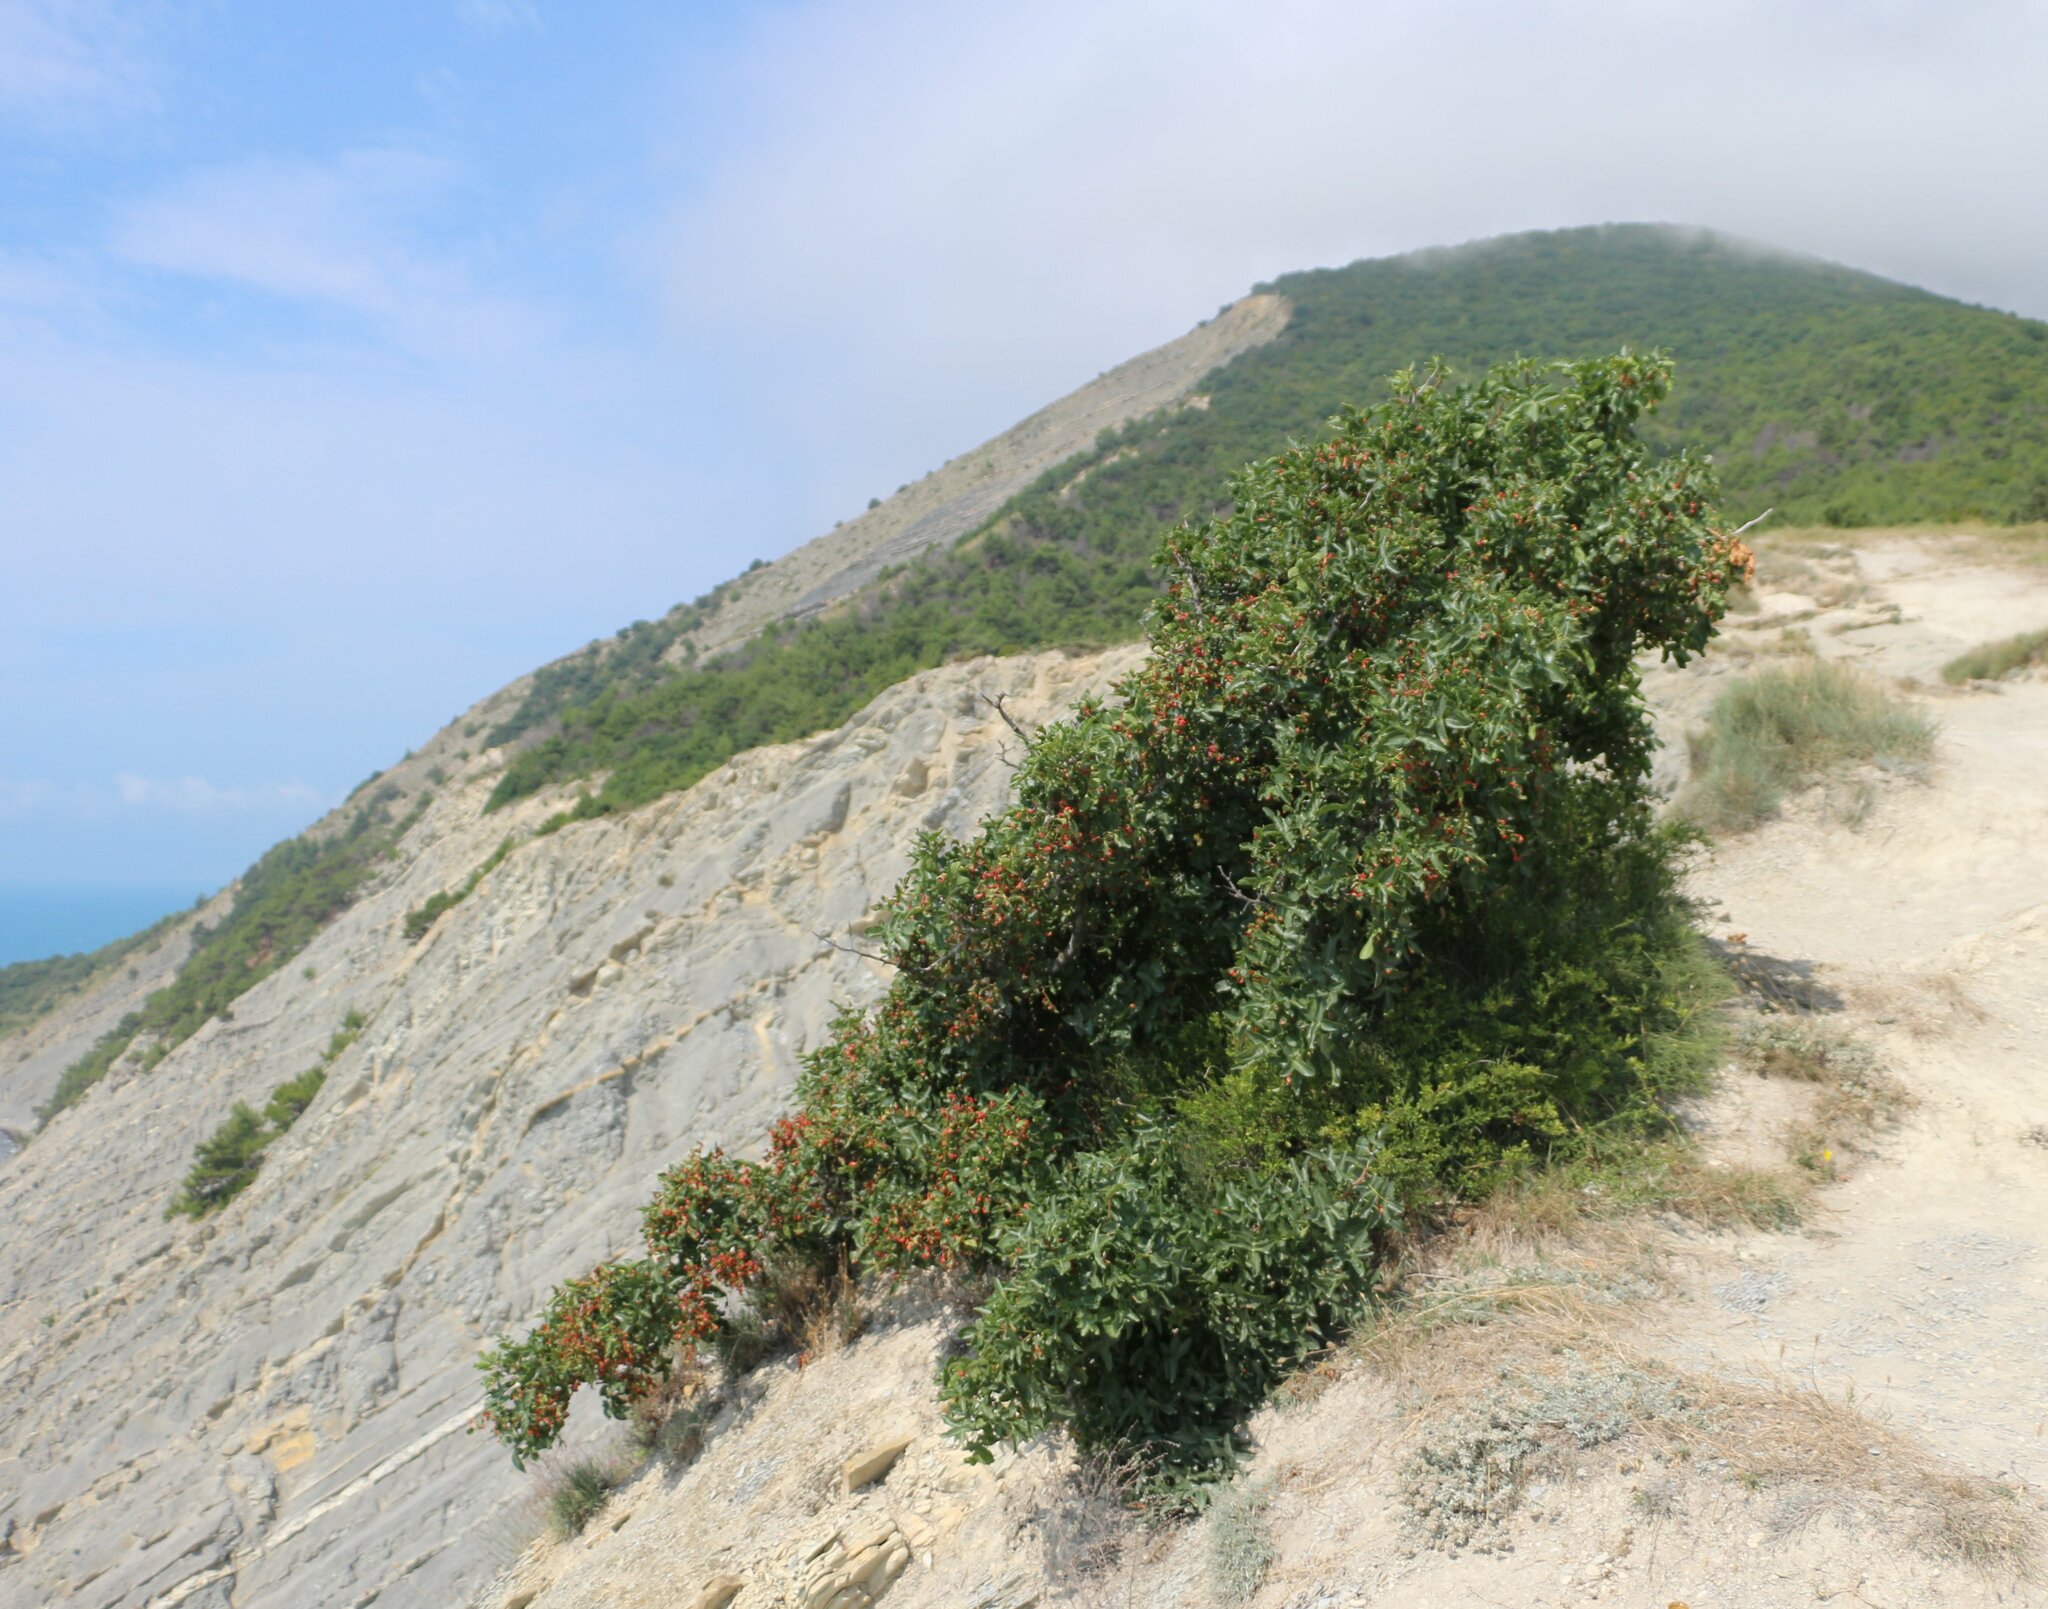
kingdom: Plantae
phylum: Tracheophyta
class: Magnoliopsida
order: Sapindales
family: Anacardiaceae
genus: Pistacia
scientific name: Pistacia atlantica
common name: Mt. atlas mastic tree
